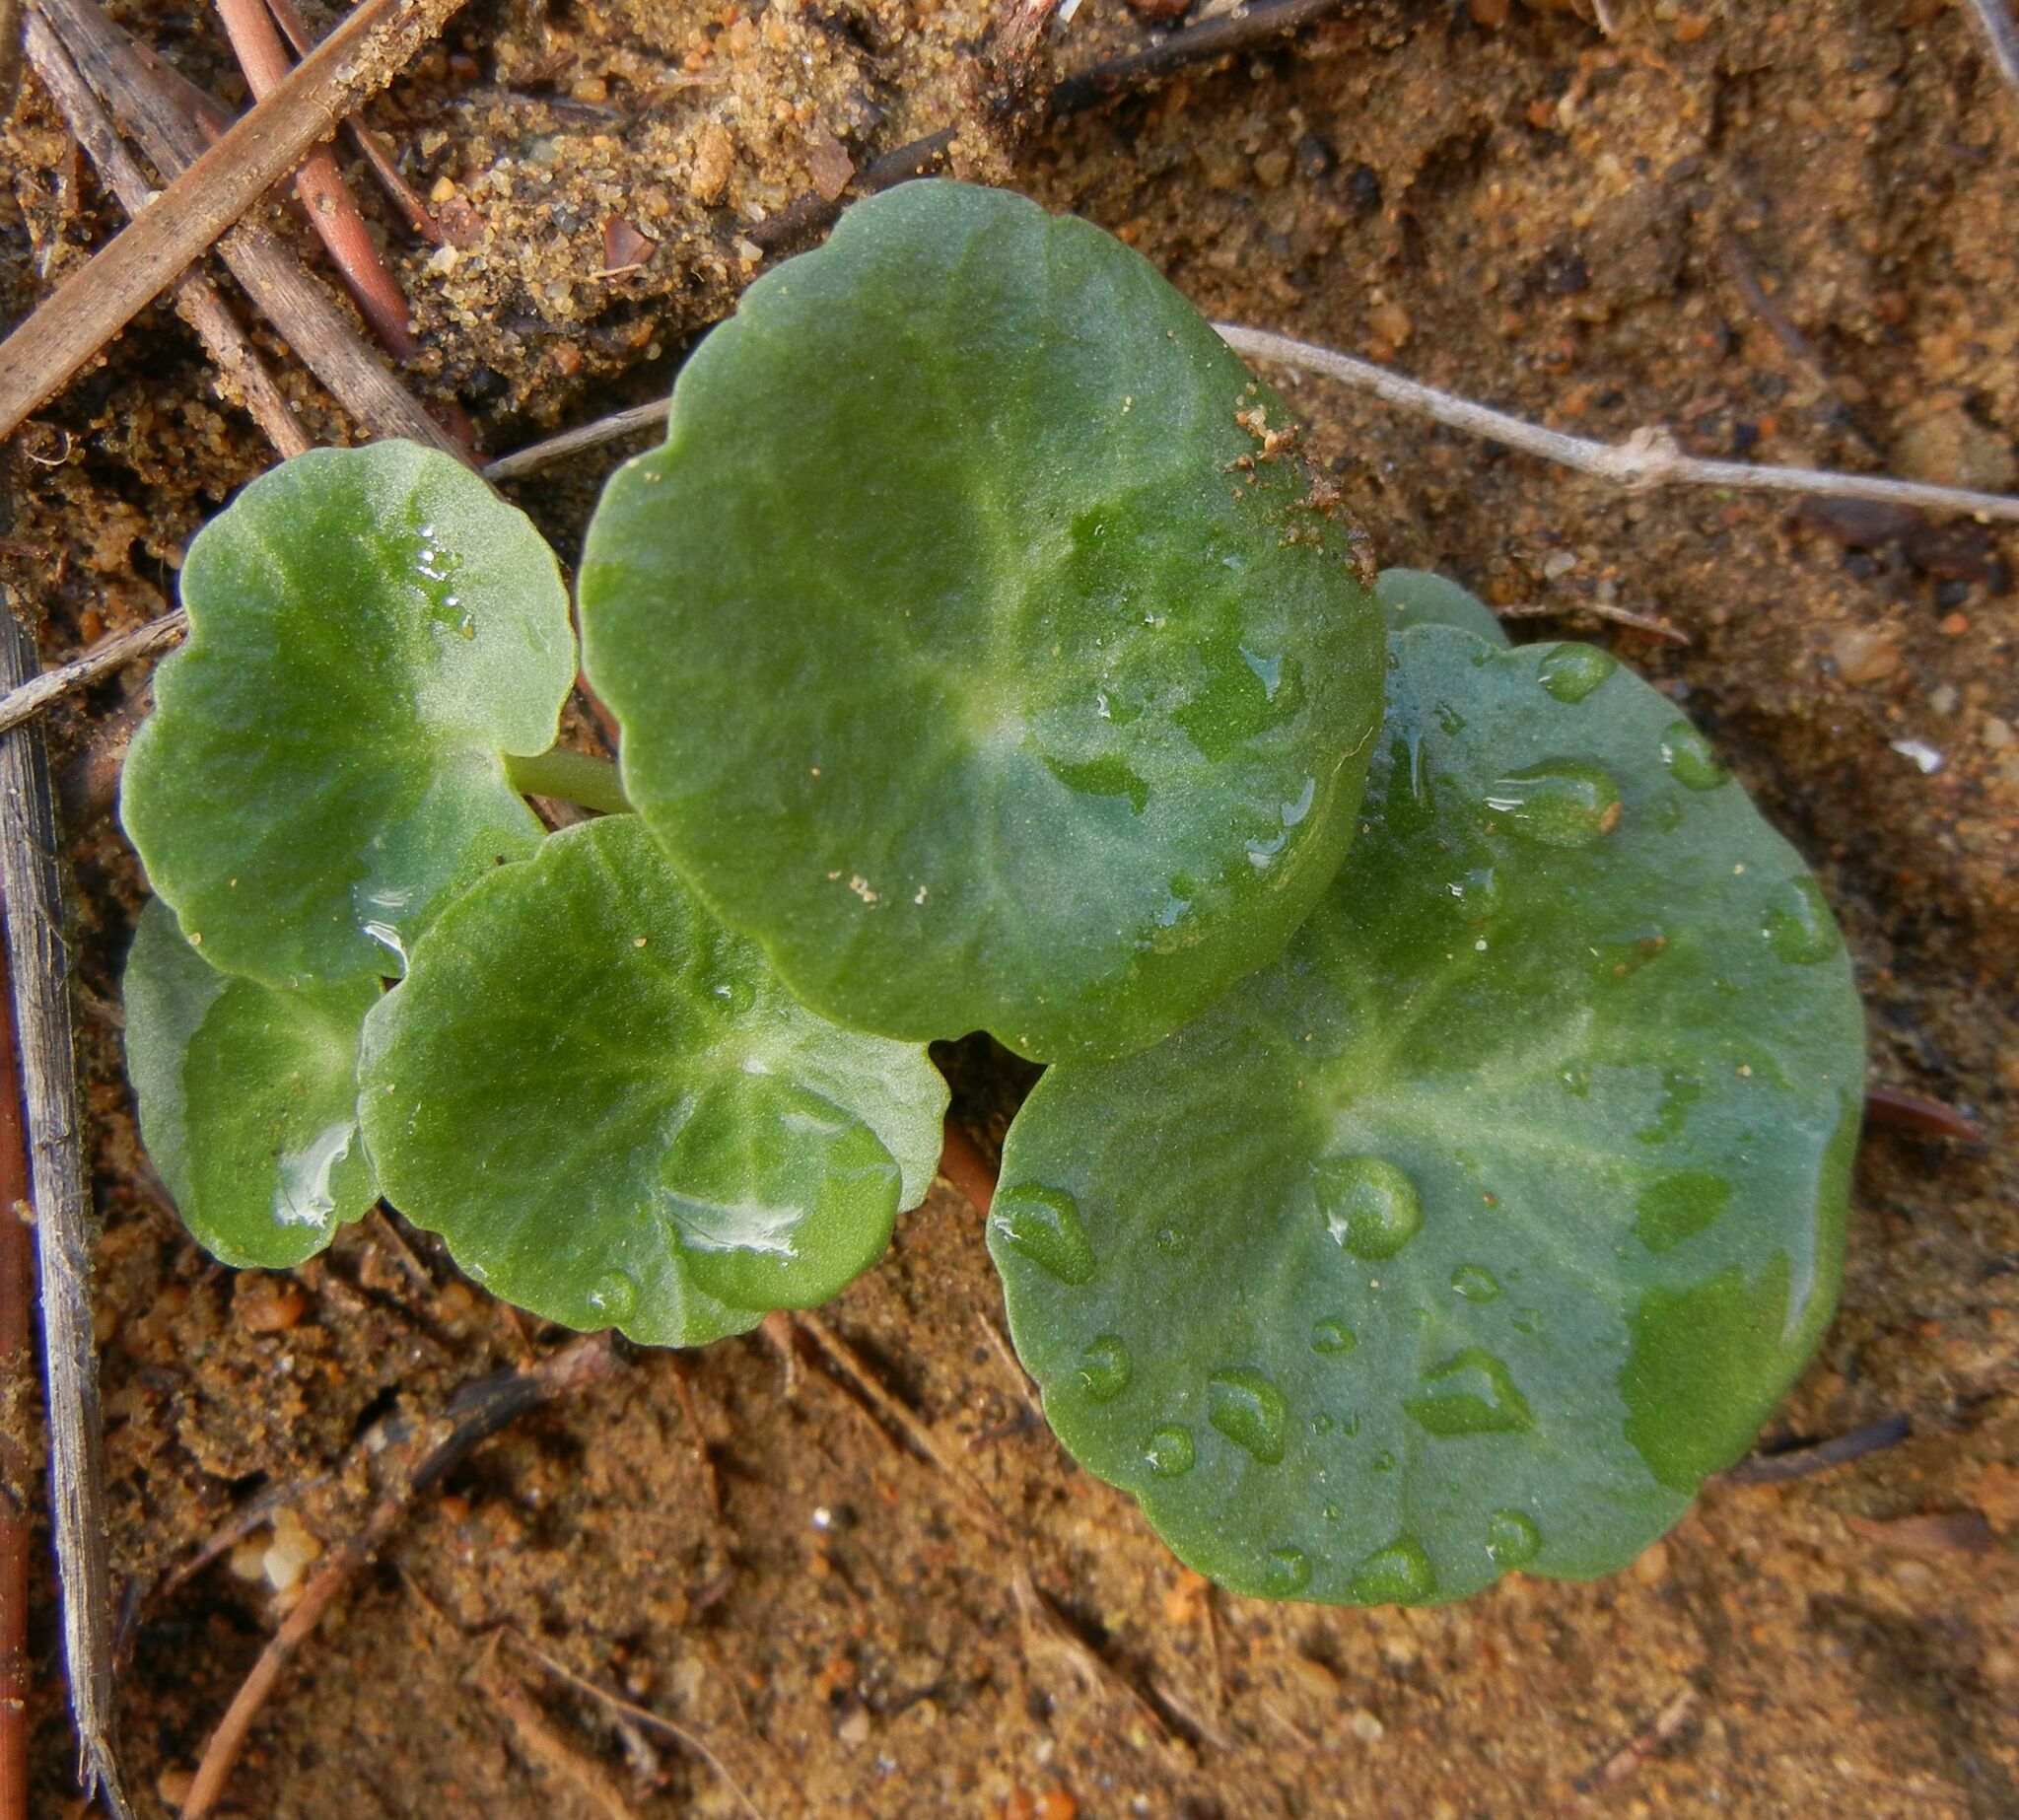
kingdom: Plantae
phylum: Tracheophyta
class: Magnoliopsida
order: Saxifragales
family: Crassulaceae
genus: Umbilicus
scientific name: Umbilicus rupestris
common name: Navelwort
